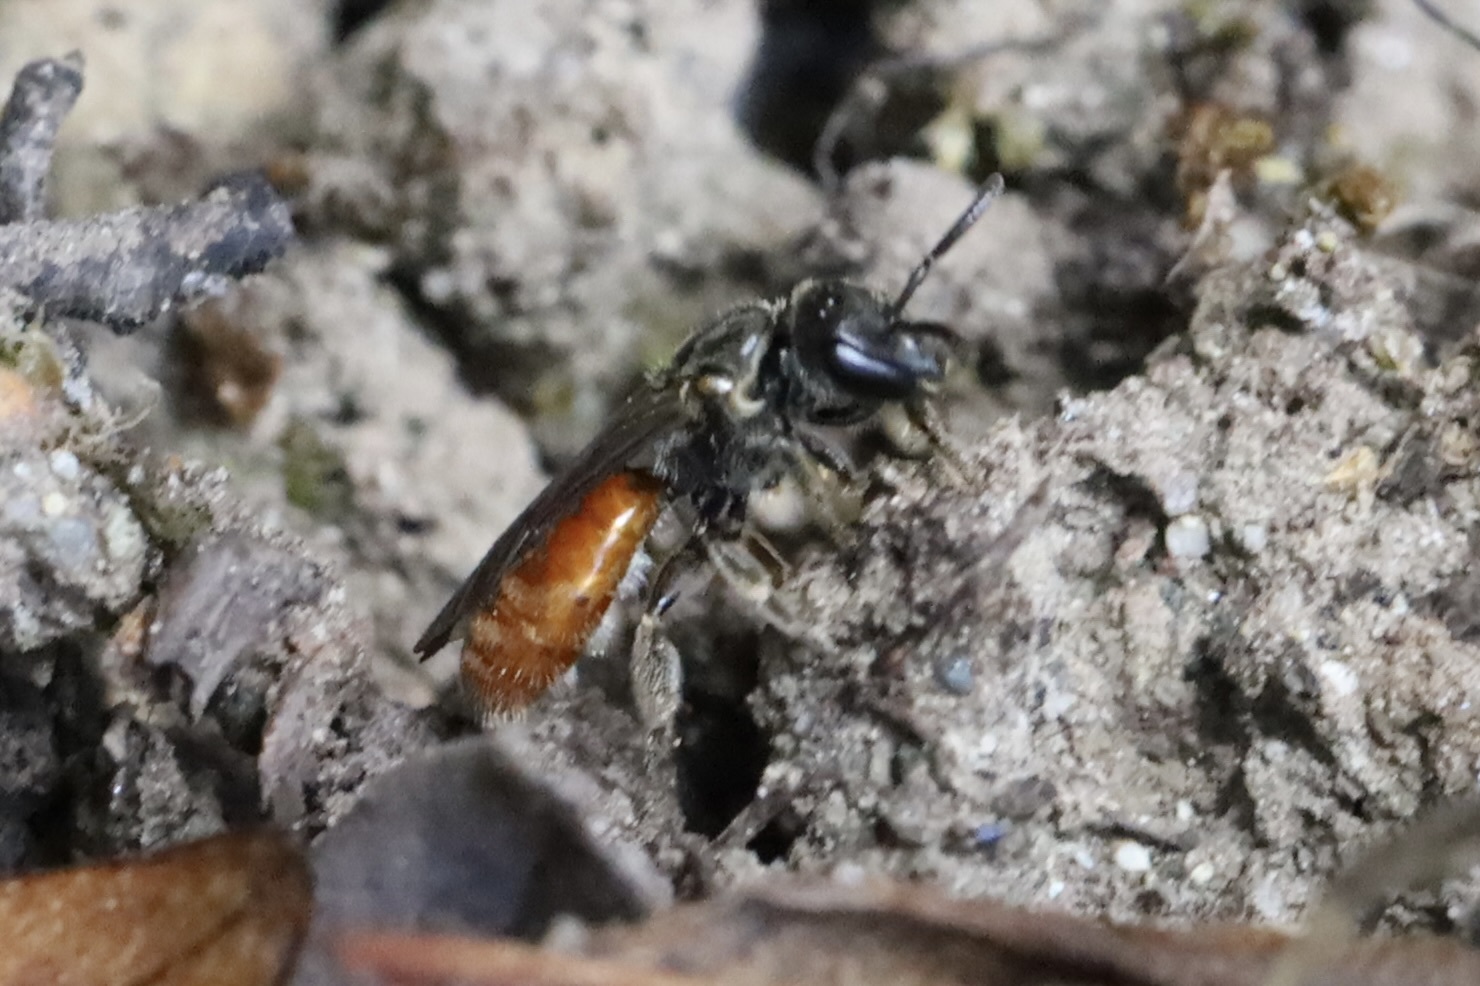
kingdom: Animalia
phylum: Arthropoda
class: Insecta
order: Hymenoptera
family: Halictidae
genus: Lasioglossum
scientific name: Lasioglossum ovaliceps
